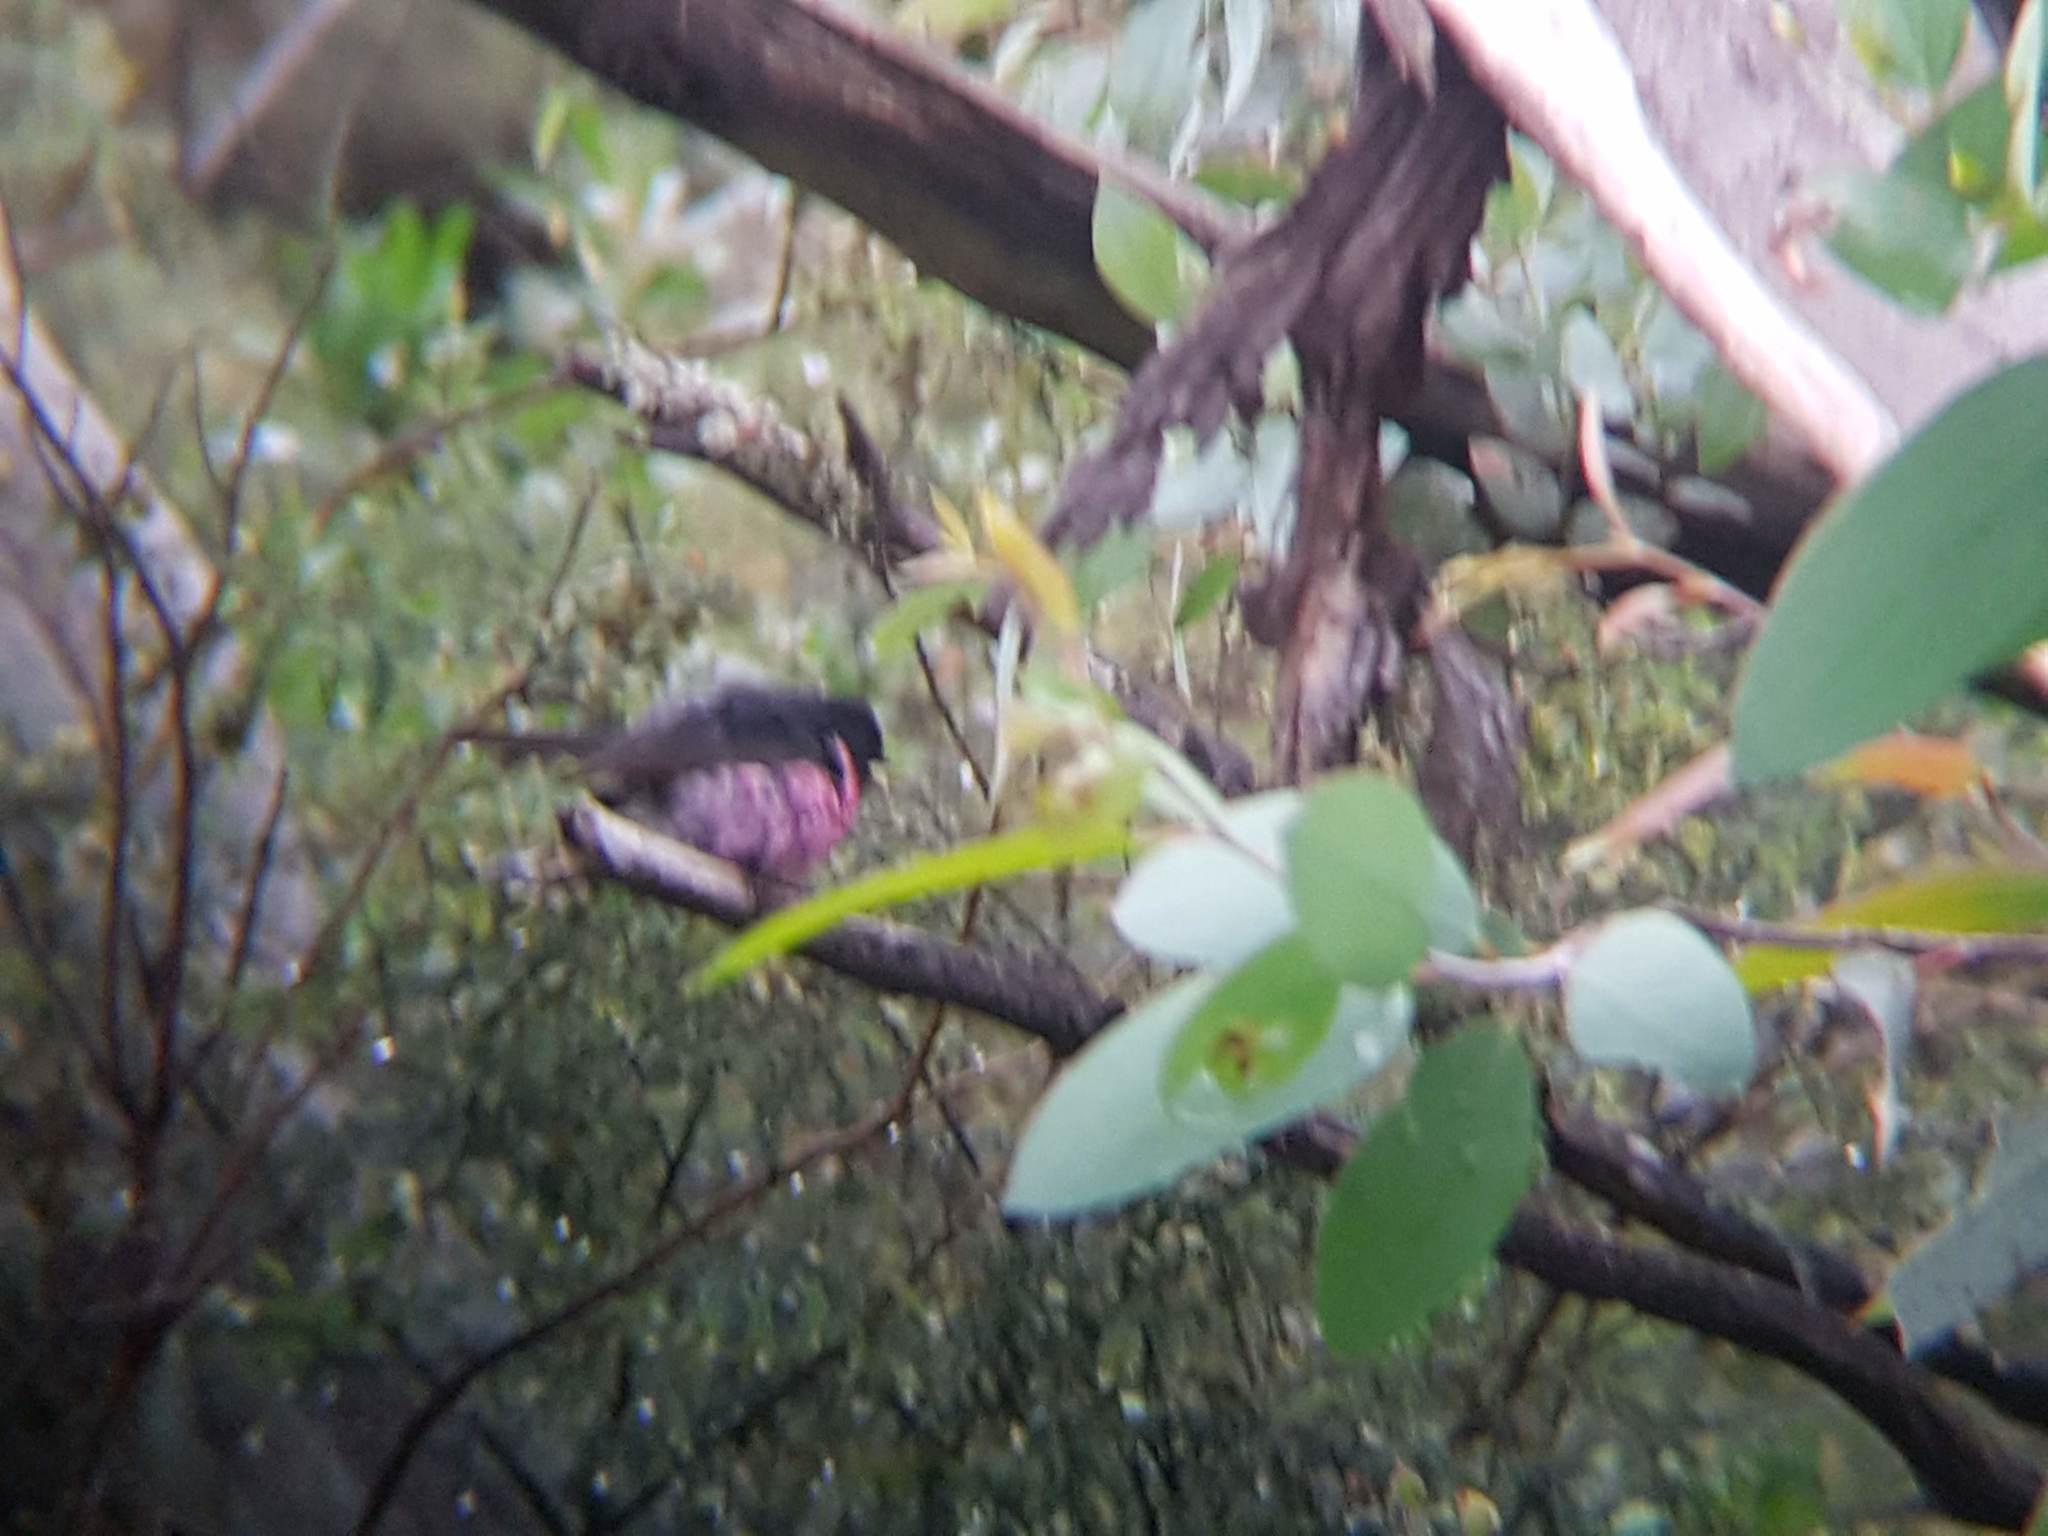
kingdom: Animalia
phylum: Chordata
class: Aves
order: Passeriformes
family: Petroicidae
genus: Petroica
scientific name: Petroica rodinogaster
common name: Pink robin
